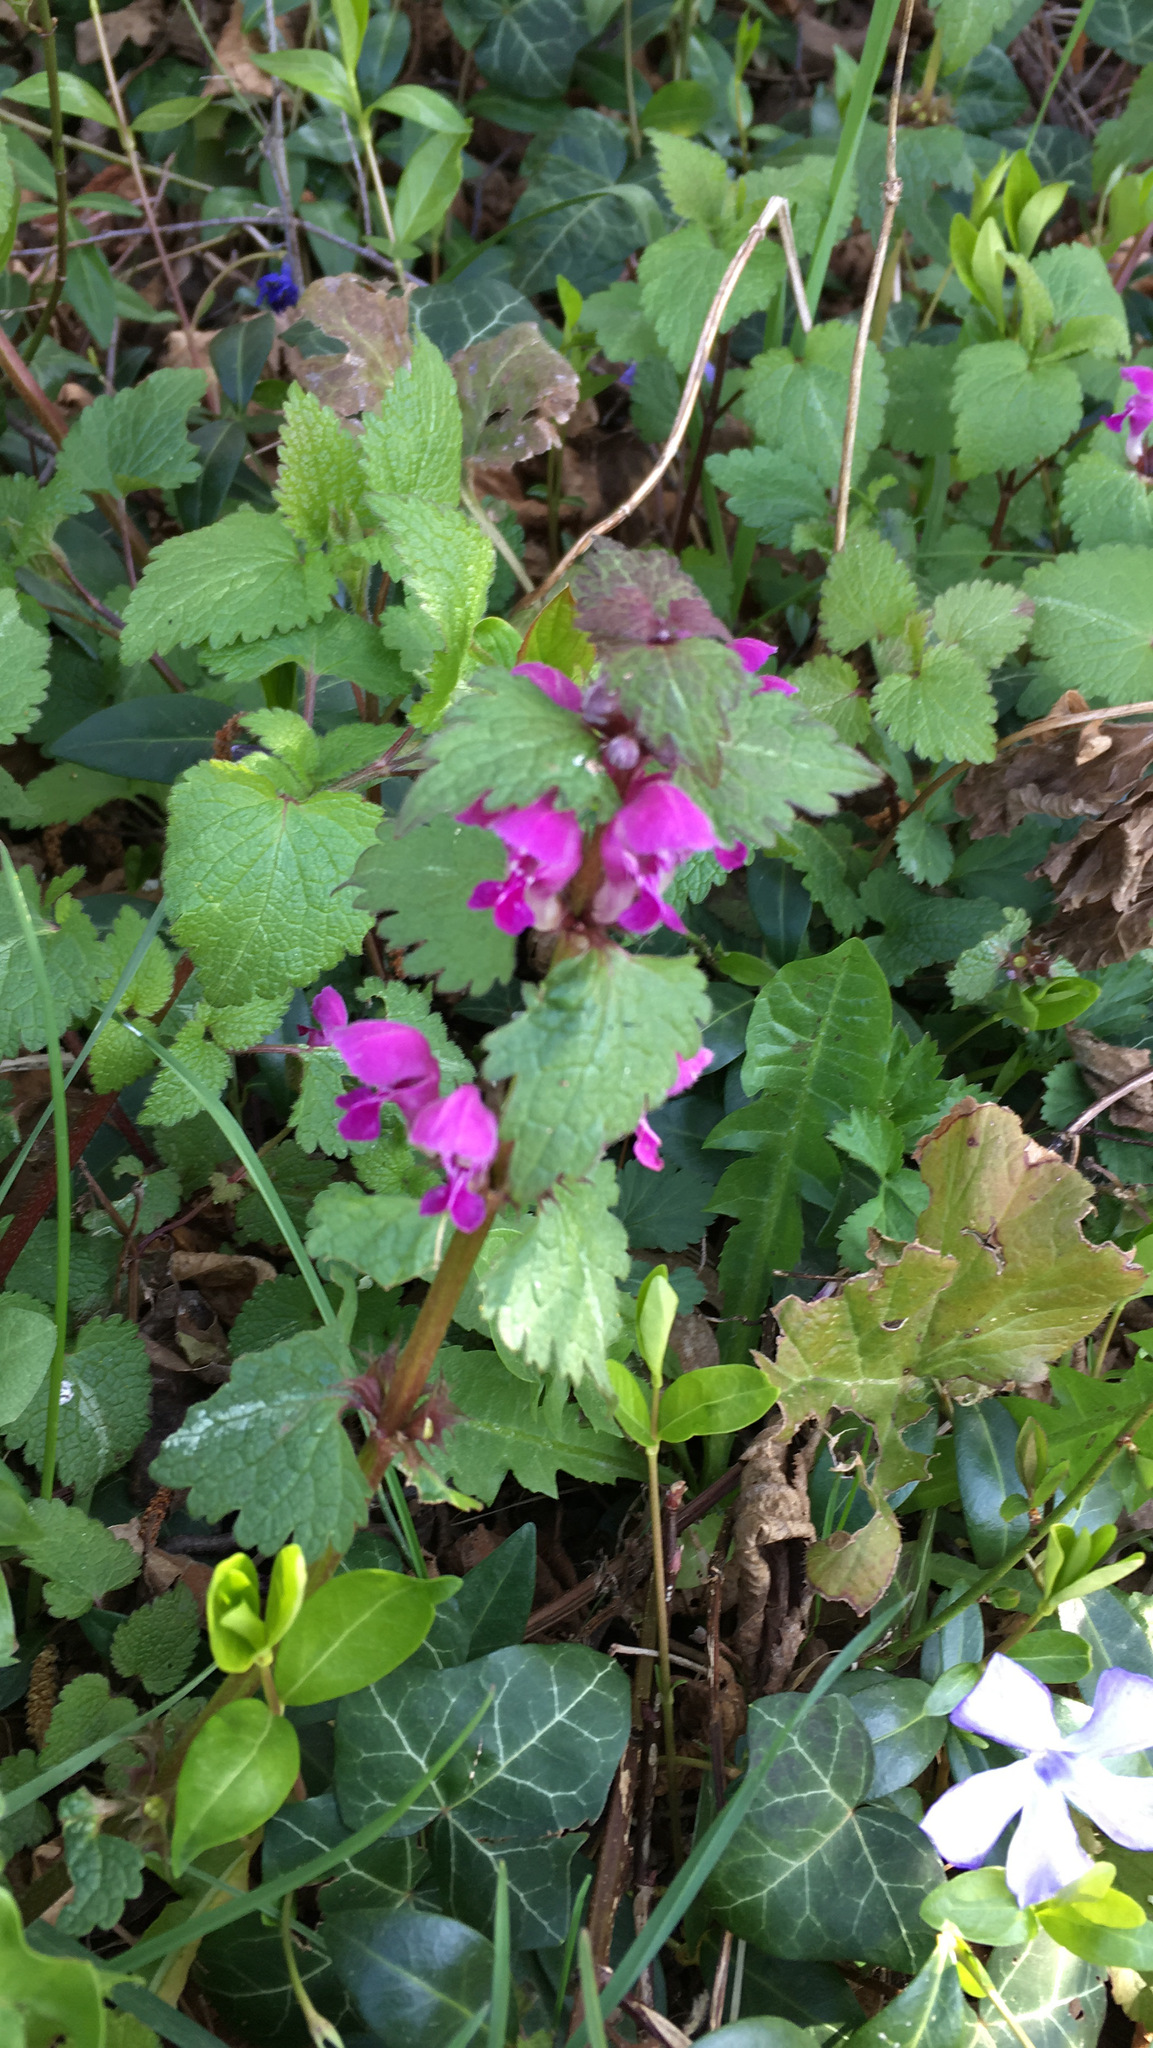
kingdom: Plantae
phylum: Tracheophyta
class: Magnoliopsida
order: Lamiales
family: Lamiaceae
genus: Lamium
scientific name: Lamium maculatum
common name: Spotted dead-nettle
